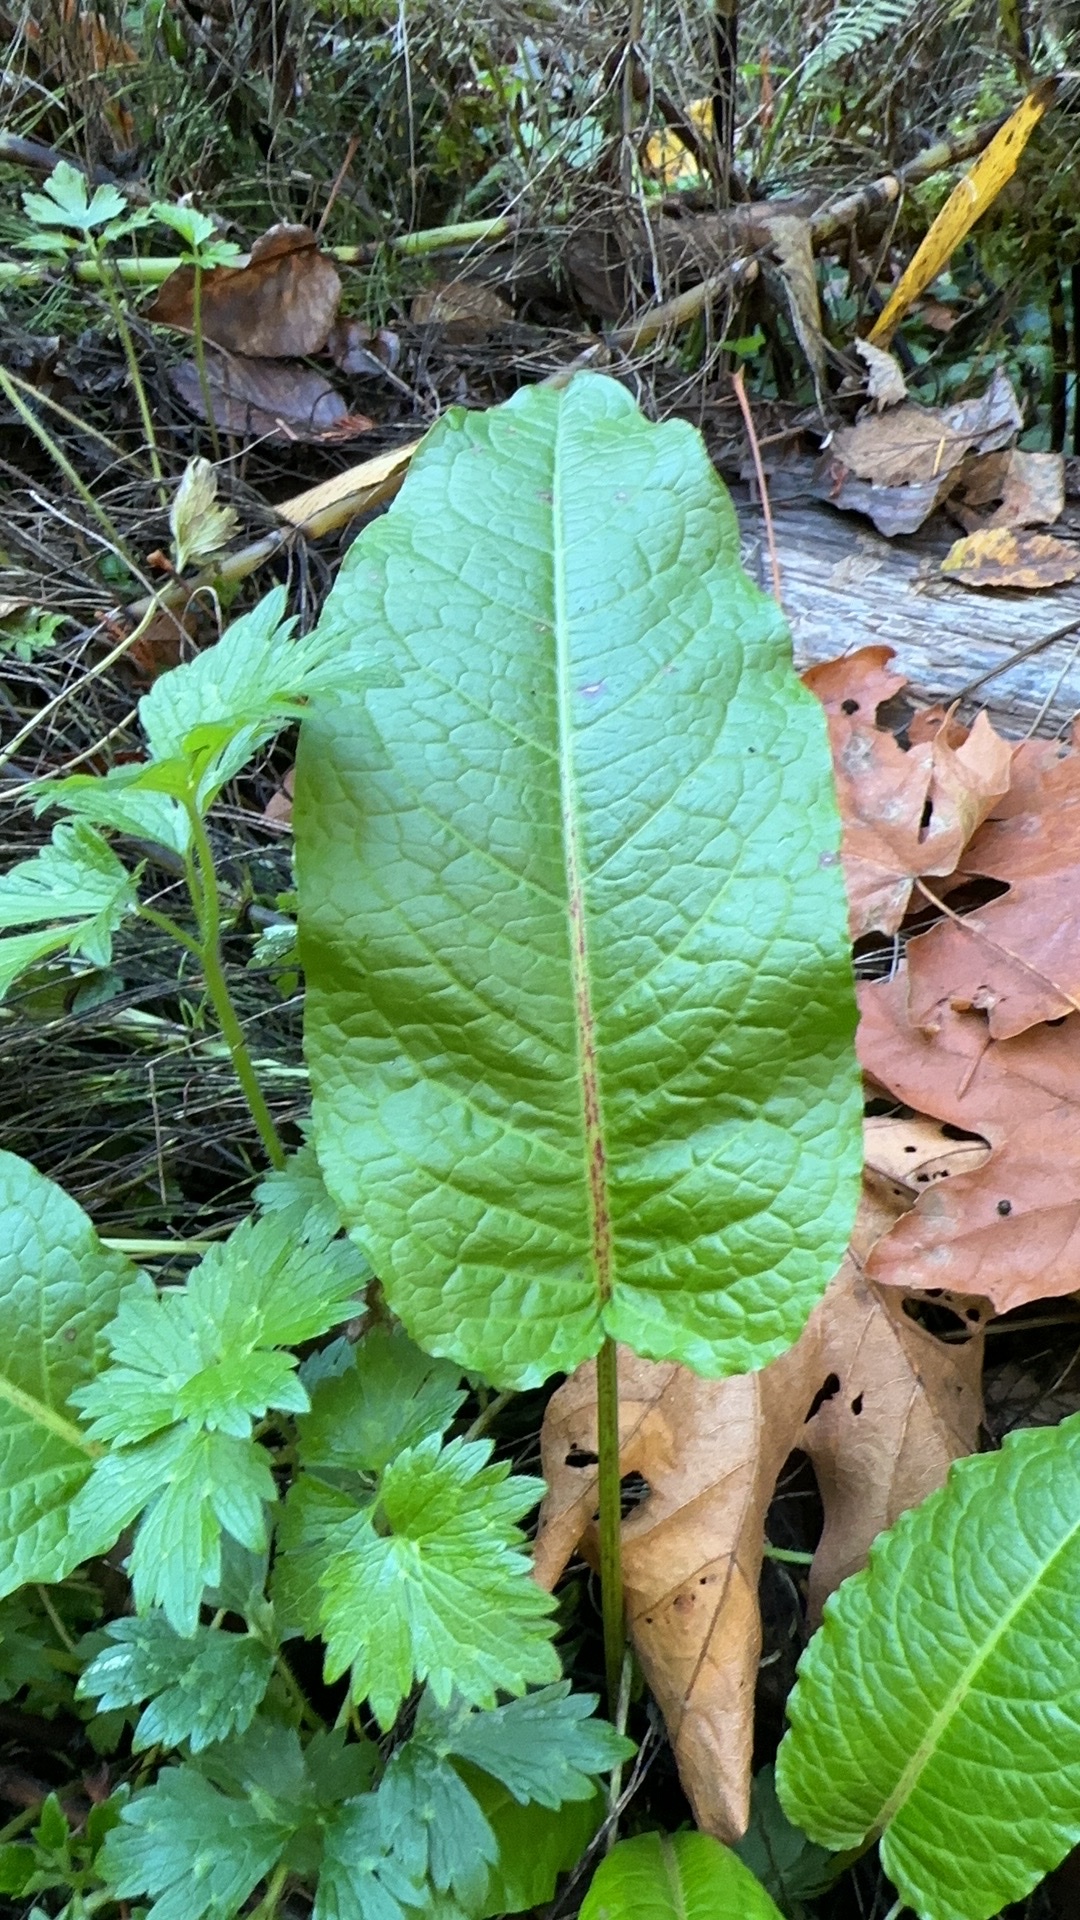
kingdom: Plantae
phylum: Tracheophyta
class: Magnoliopsida
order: Caryophyllales
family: Polygonaceae
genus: Rumex
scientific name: Rumex obtusifolius
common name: Bitter dock
